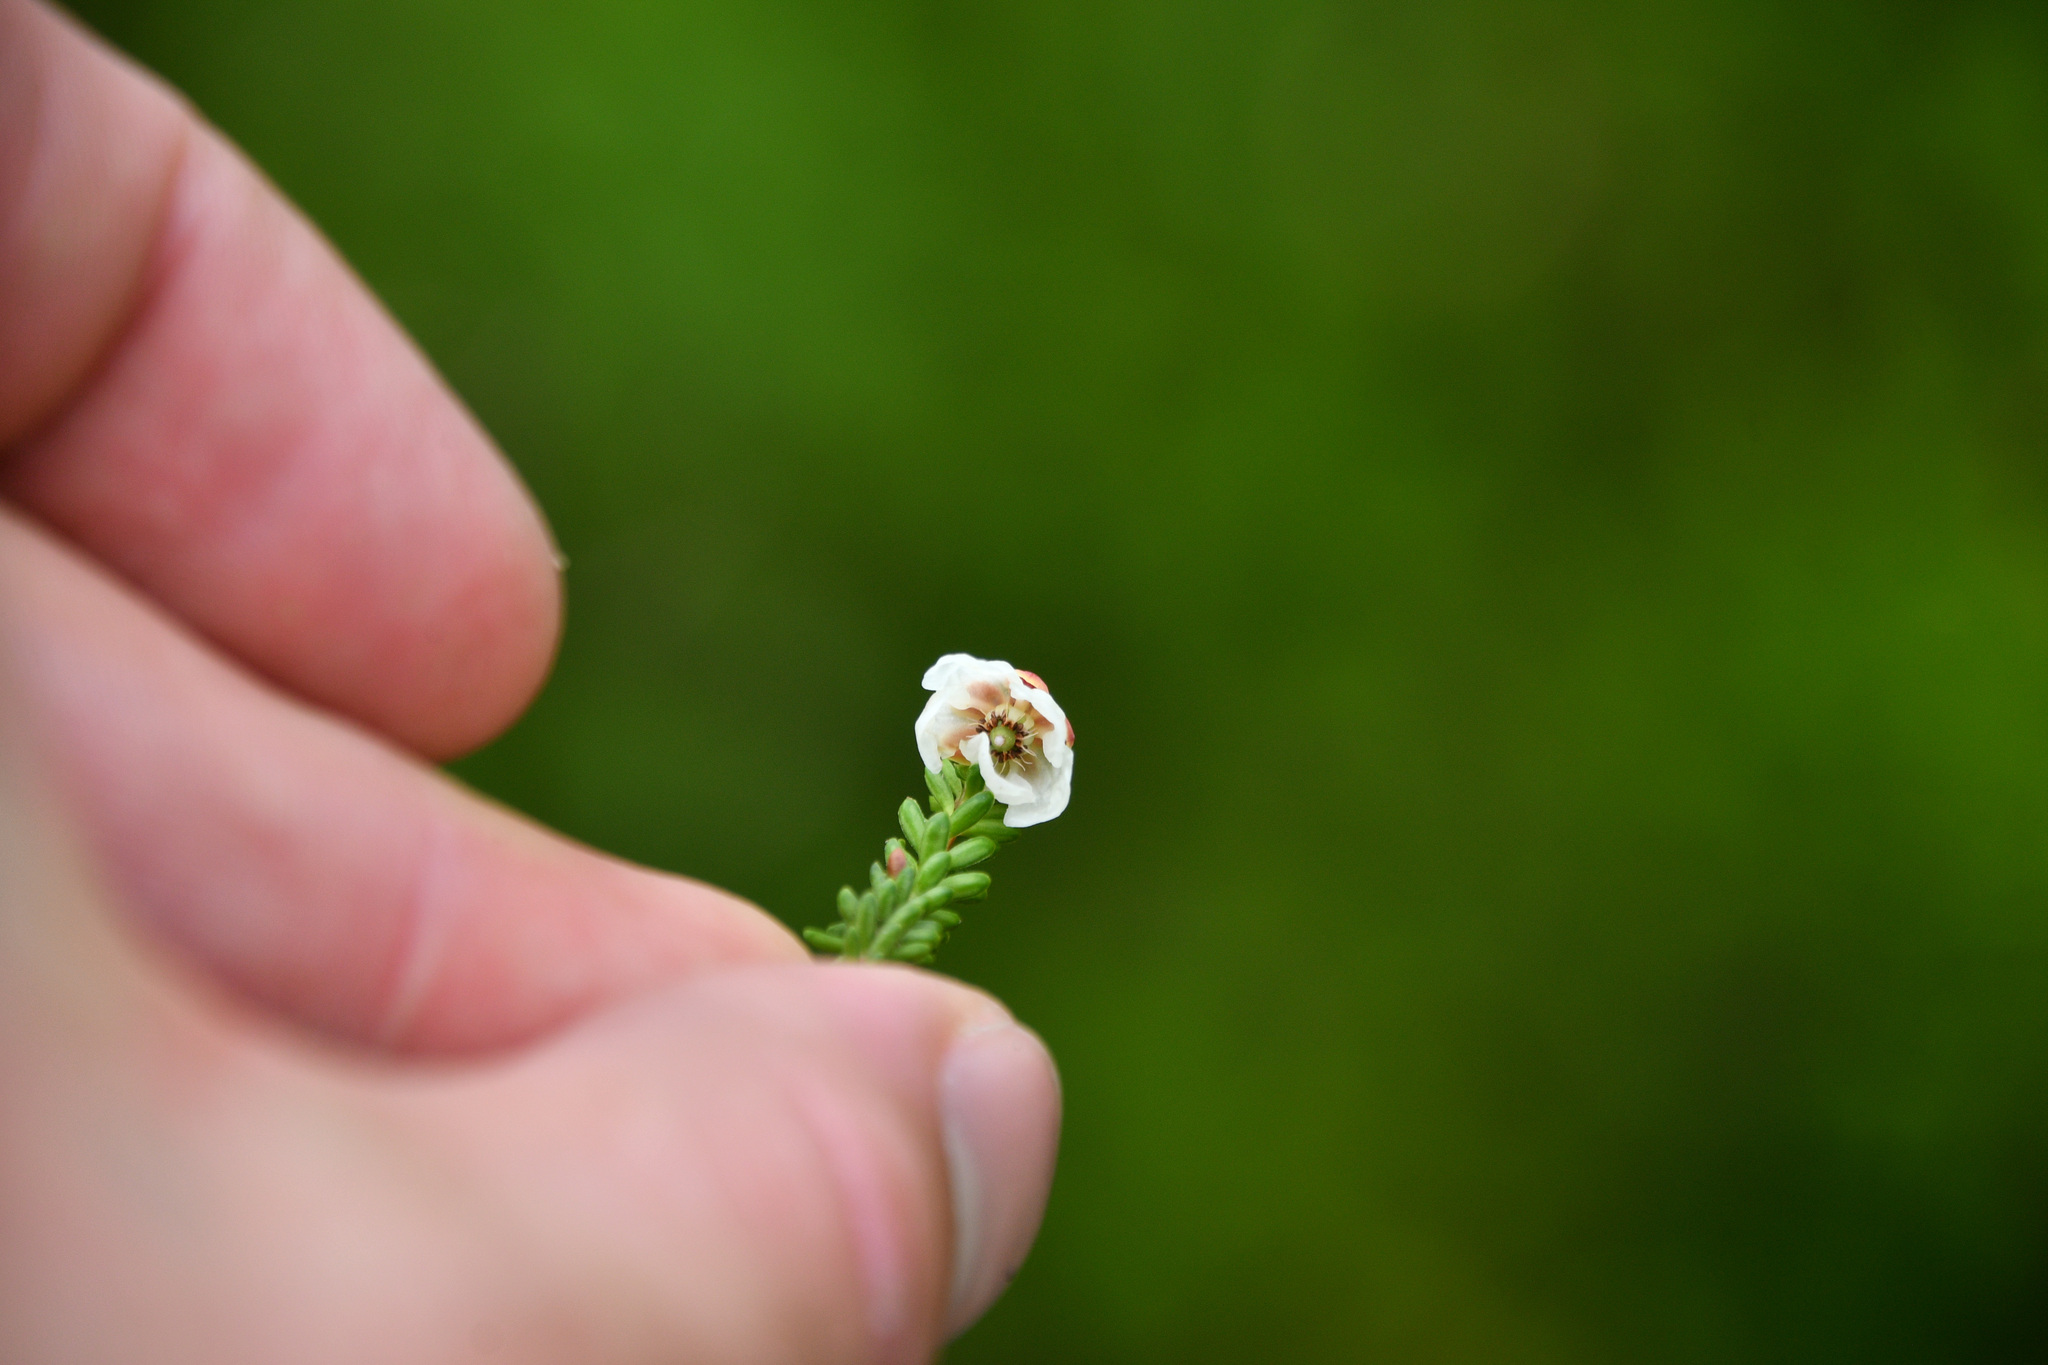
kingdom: Plantae
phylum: Tracheophyta
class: Magnoliopsida
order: Ericales
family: Ericaceae
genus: Cassiope
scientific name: Cassiope mertensiana
